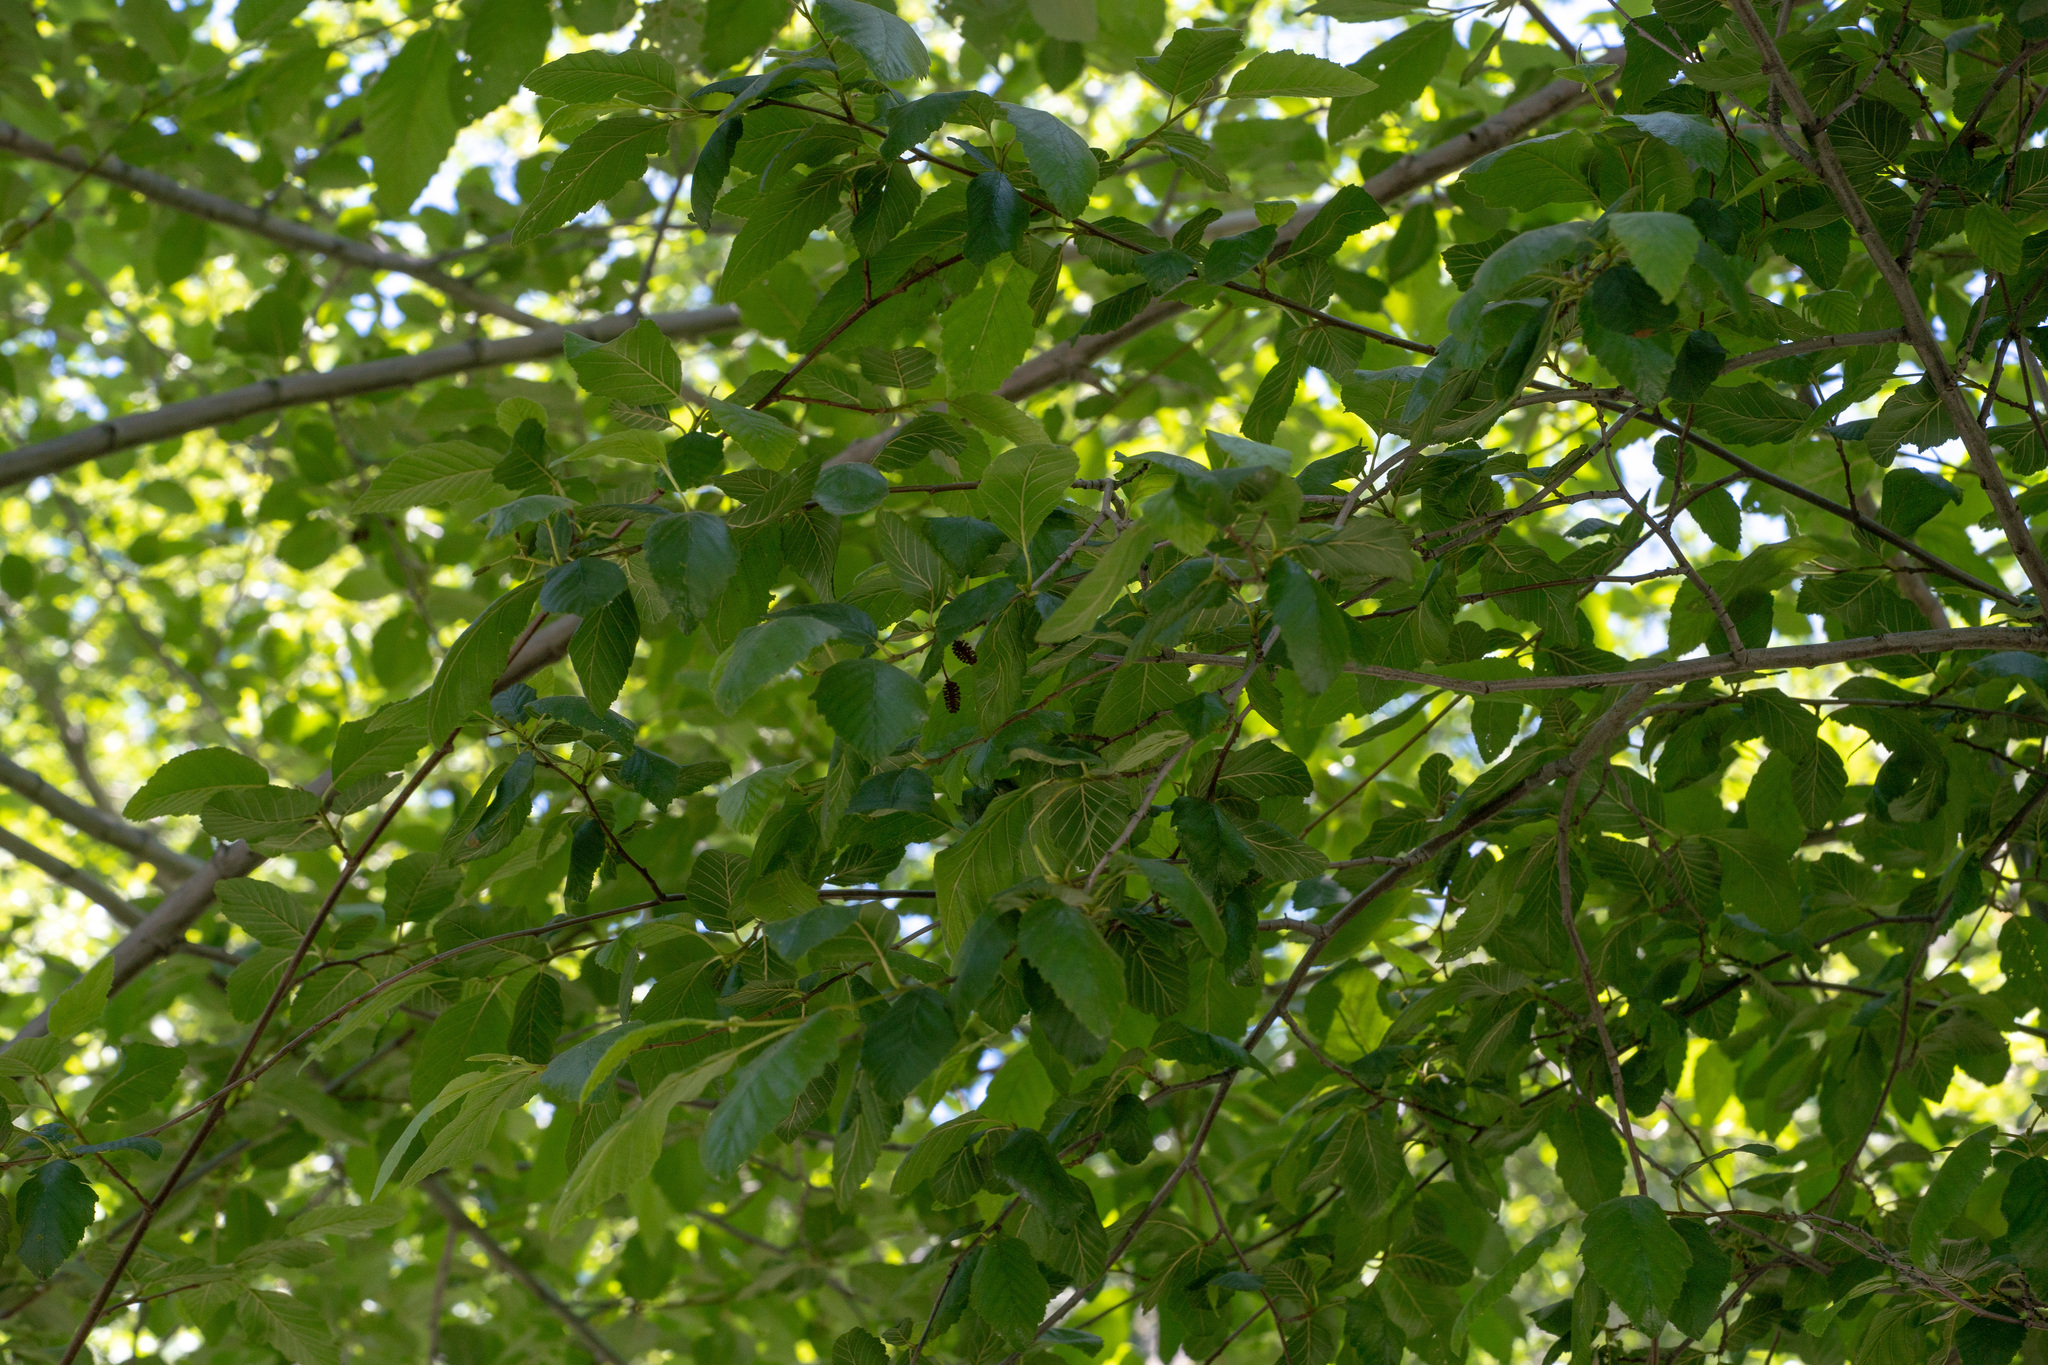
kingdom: Plantae
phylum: Tracheophyta
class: Magnoliopsida
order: Fagales
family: Betulaceae
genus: Alnus
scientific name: Alnus rhombifolia
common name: California alder
